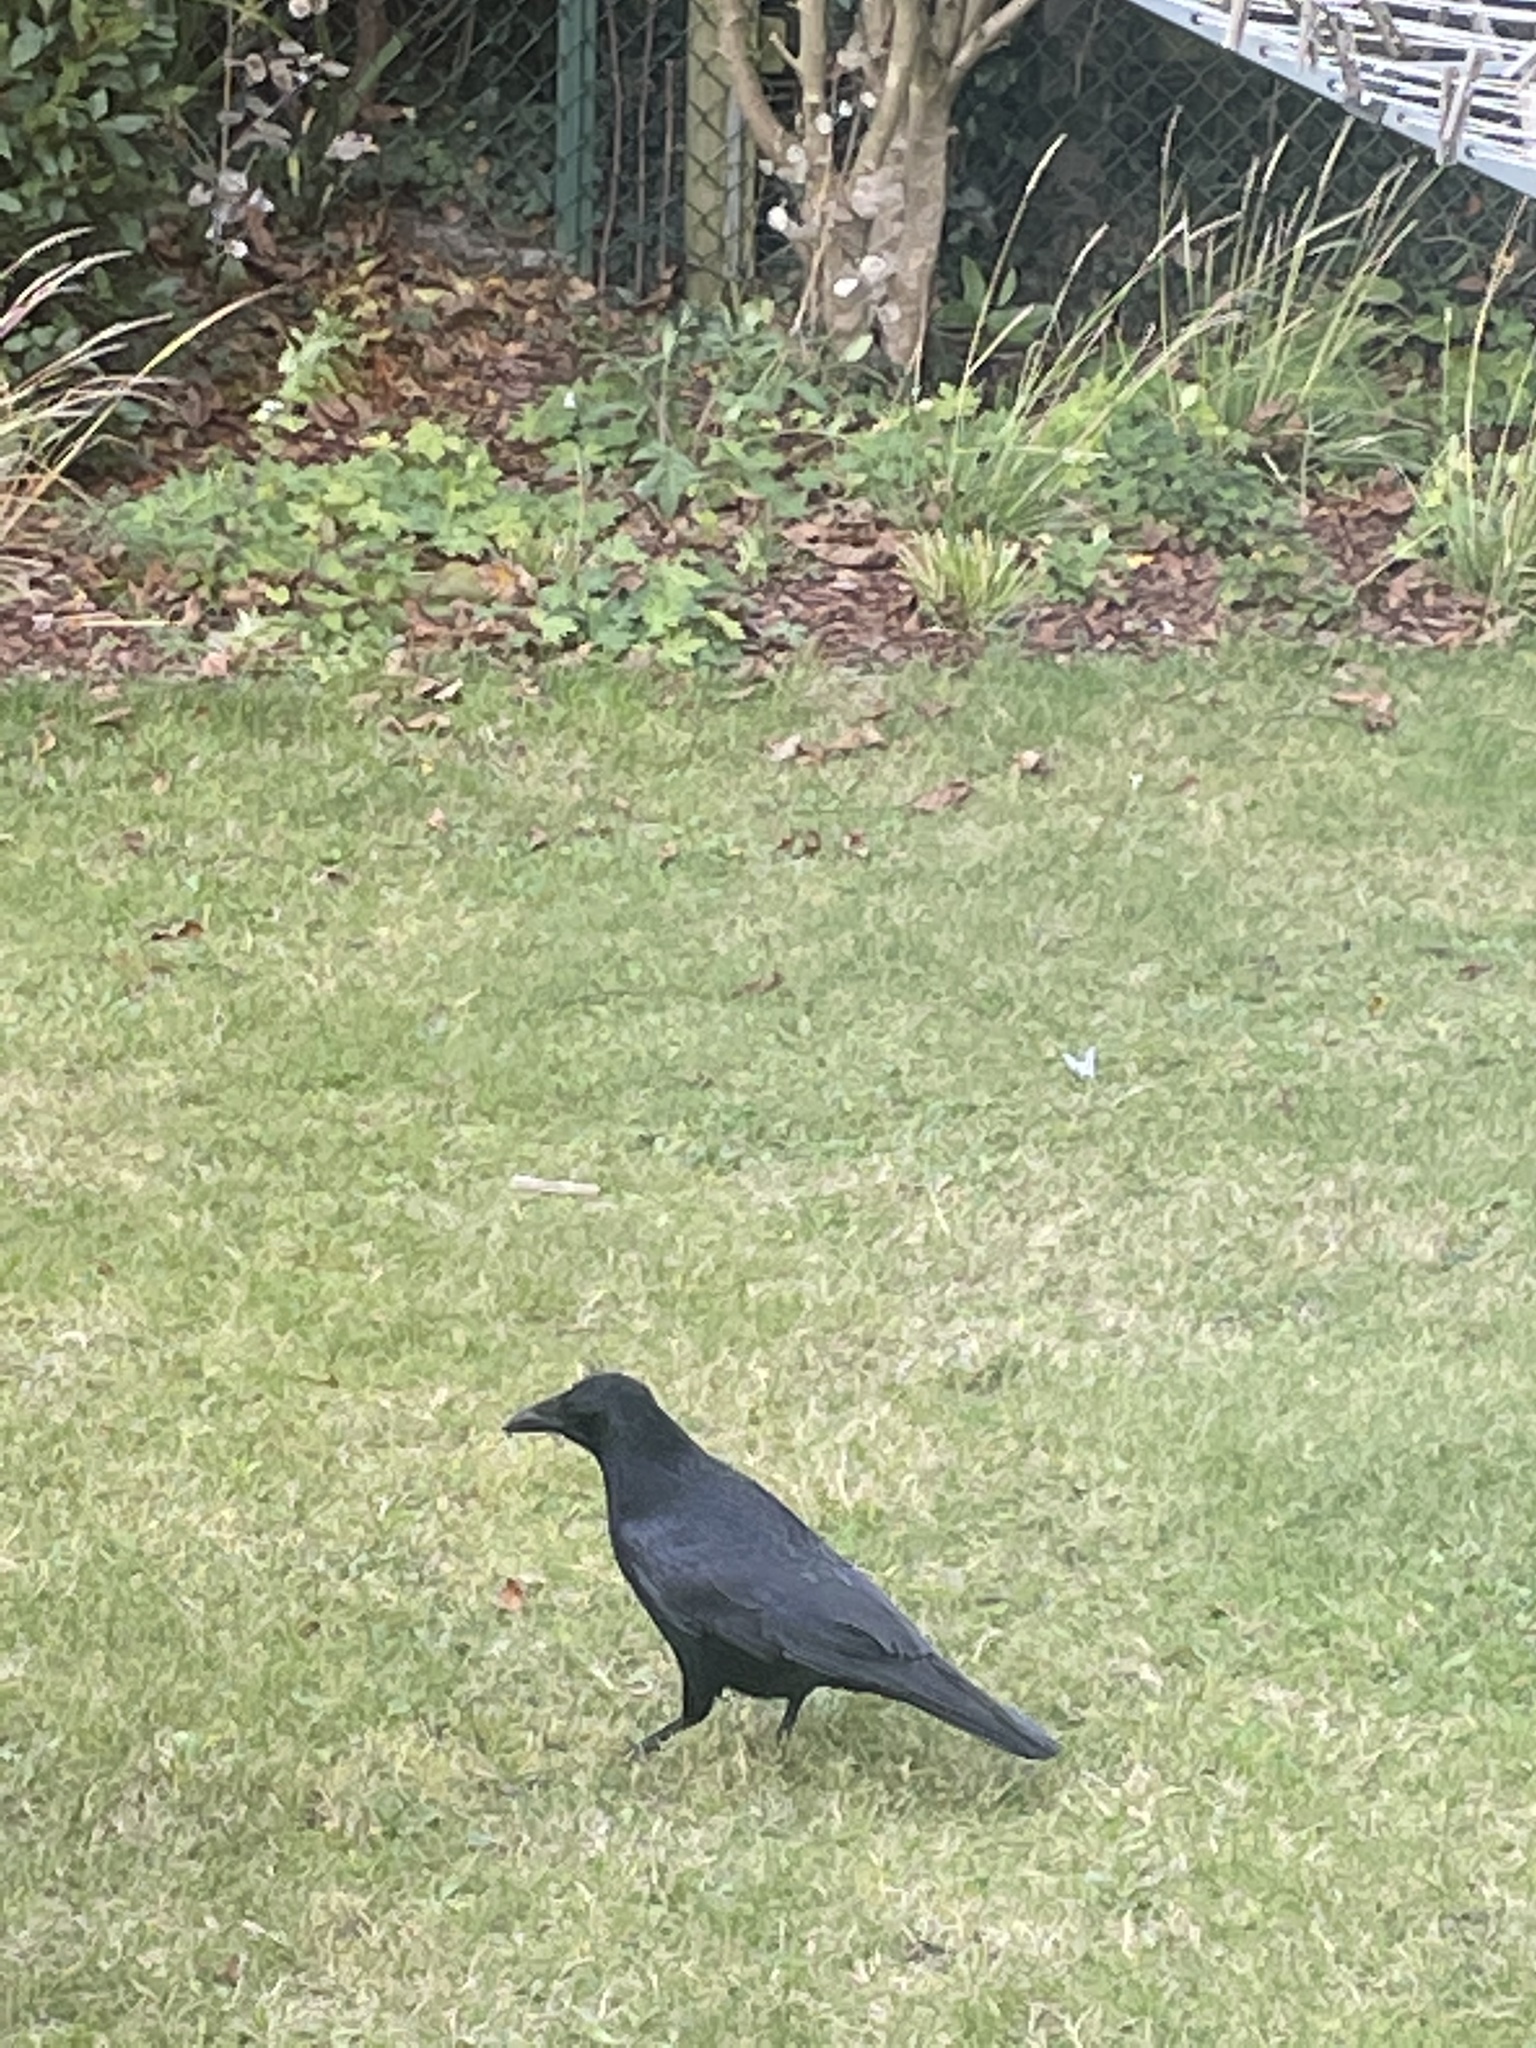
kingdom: Animalia
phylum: Chordata
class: Aves
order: Passeriformes
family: Corvidae
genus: Corvus
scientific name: Corvus corone
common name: Carrion crow
